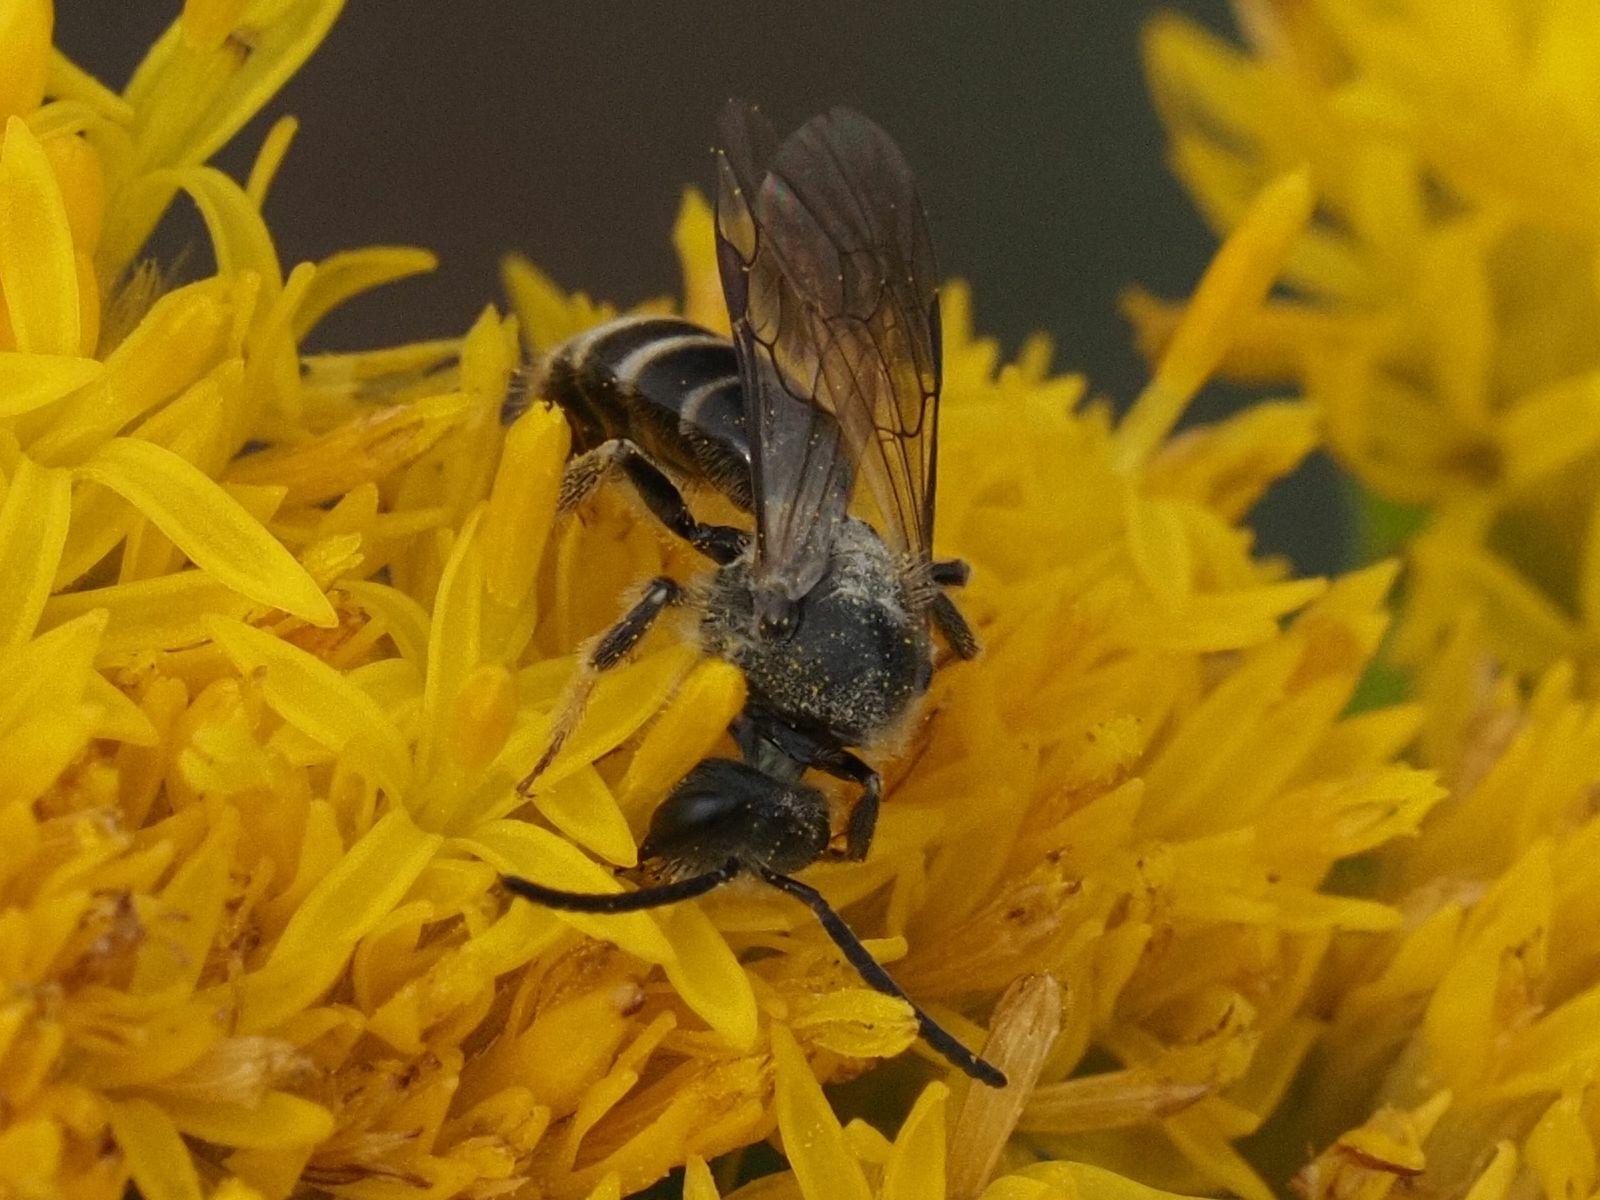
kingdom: Animalia
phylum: Arthropoda
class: Insecta
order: Hymenoptera
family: Halictidae
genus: Lasioglossum
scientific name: Lasioglossum marginatum
